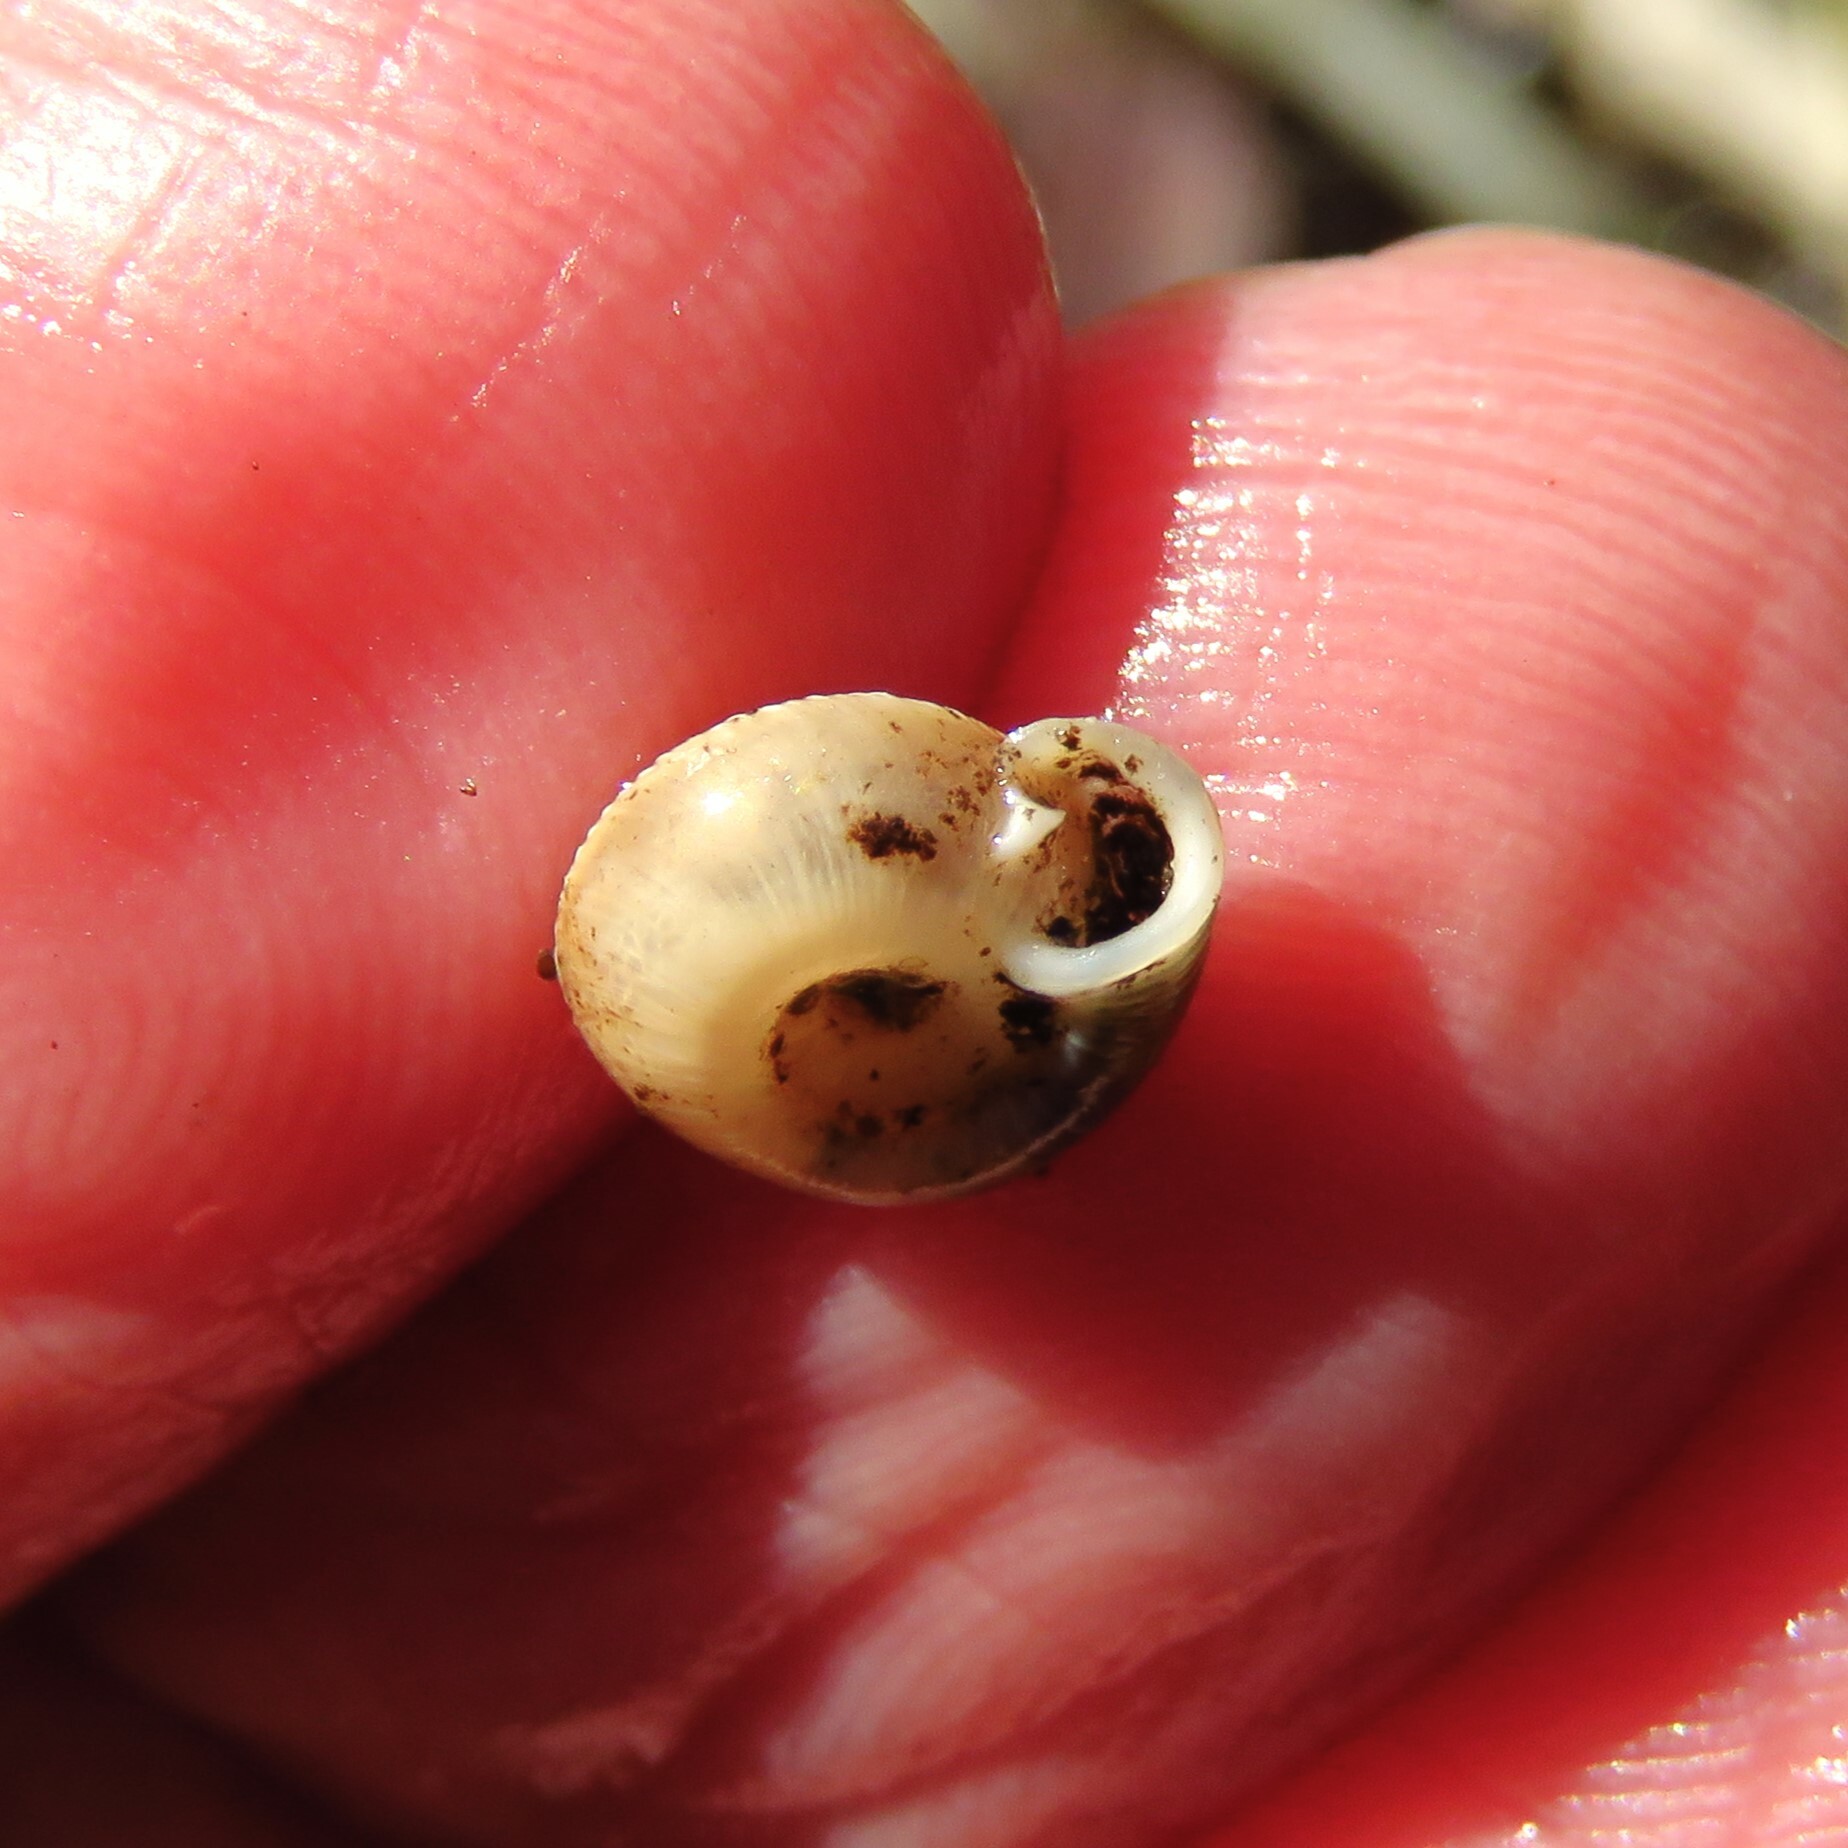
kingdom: Animalia
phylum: Mollusca
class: Gastropoda
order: Stylommatophora
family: Polygyridae
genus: Polygyra
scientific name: Polygyra cereolus
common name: Southern flatcone snail
